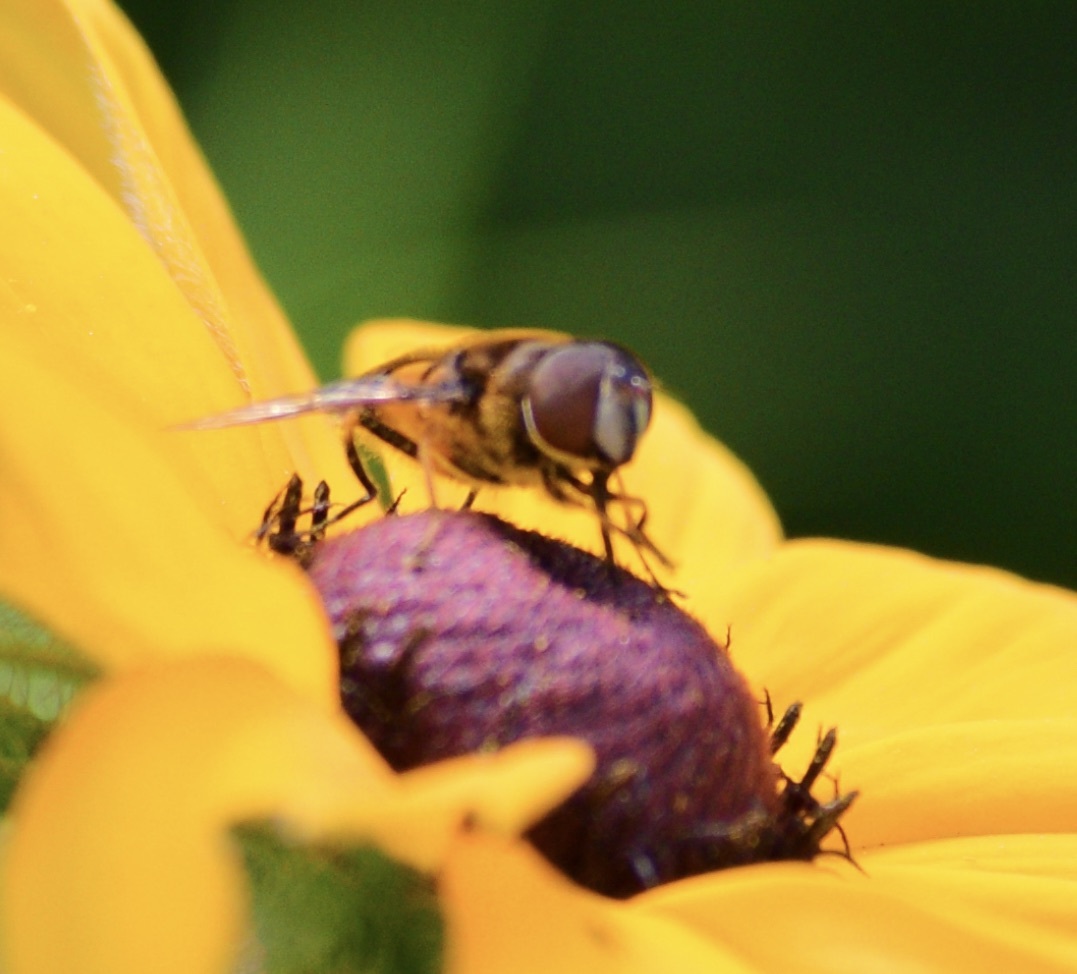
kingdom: Animalia
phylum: Arthropoda
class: Insecta
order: Diptera
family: Syrphidae
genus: Eristalis
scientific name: Eristalis transversa
